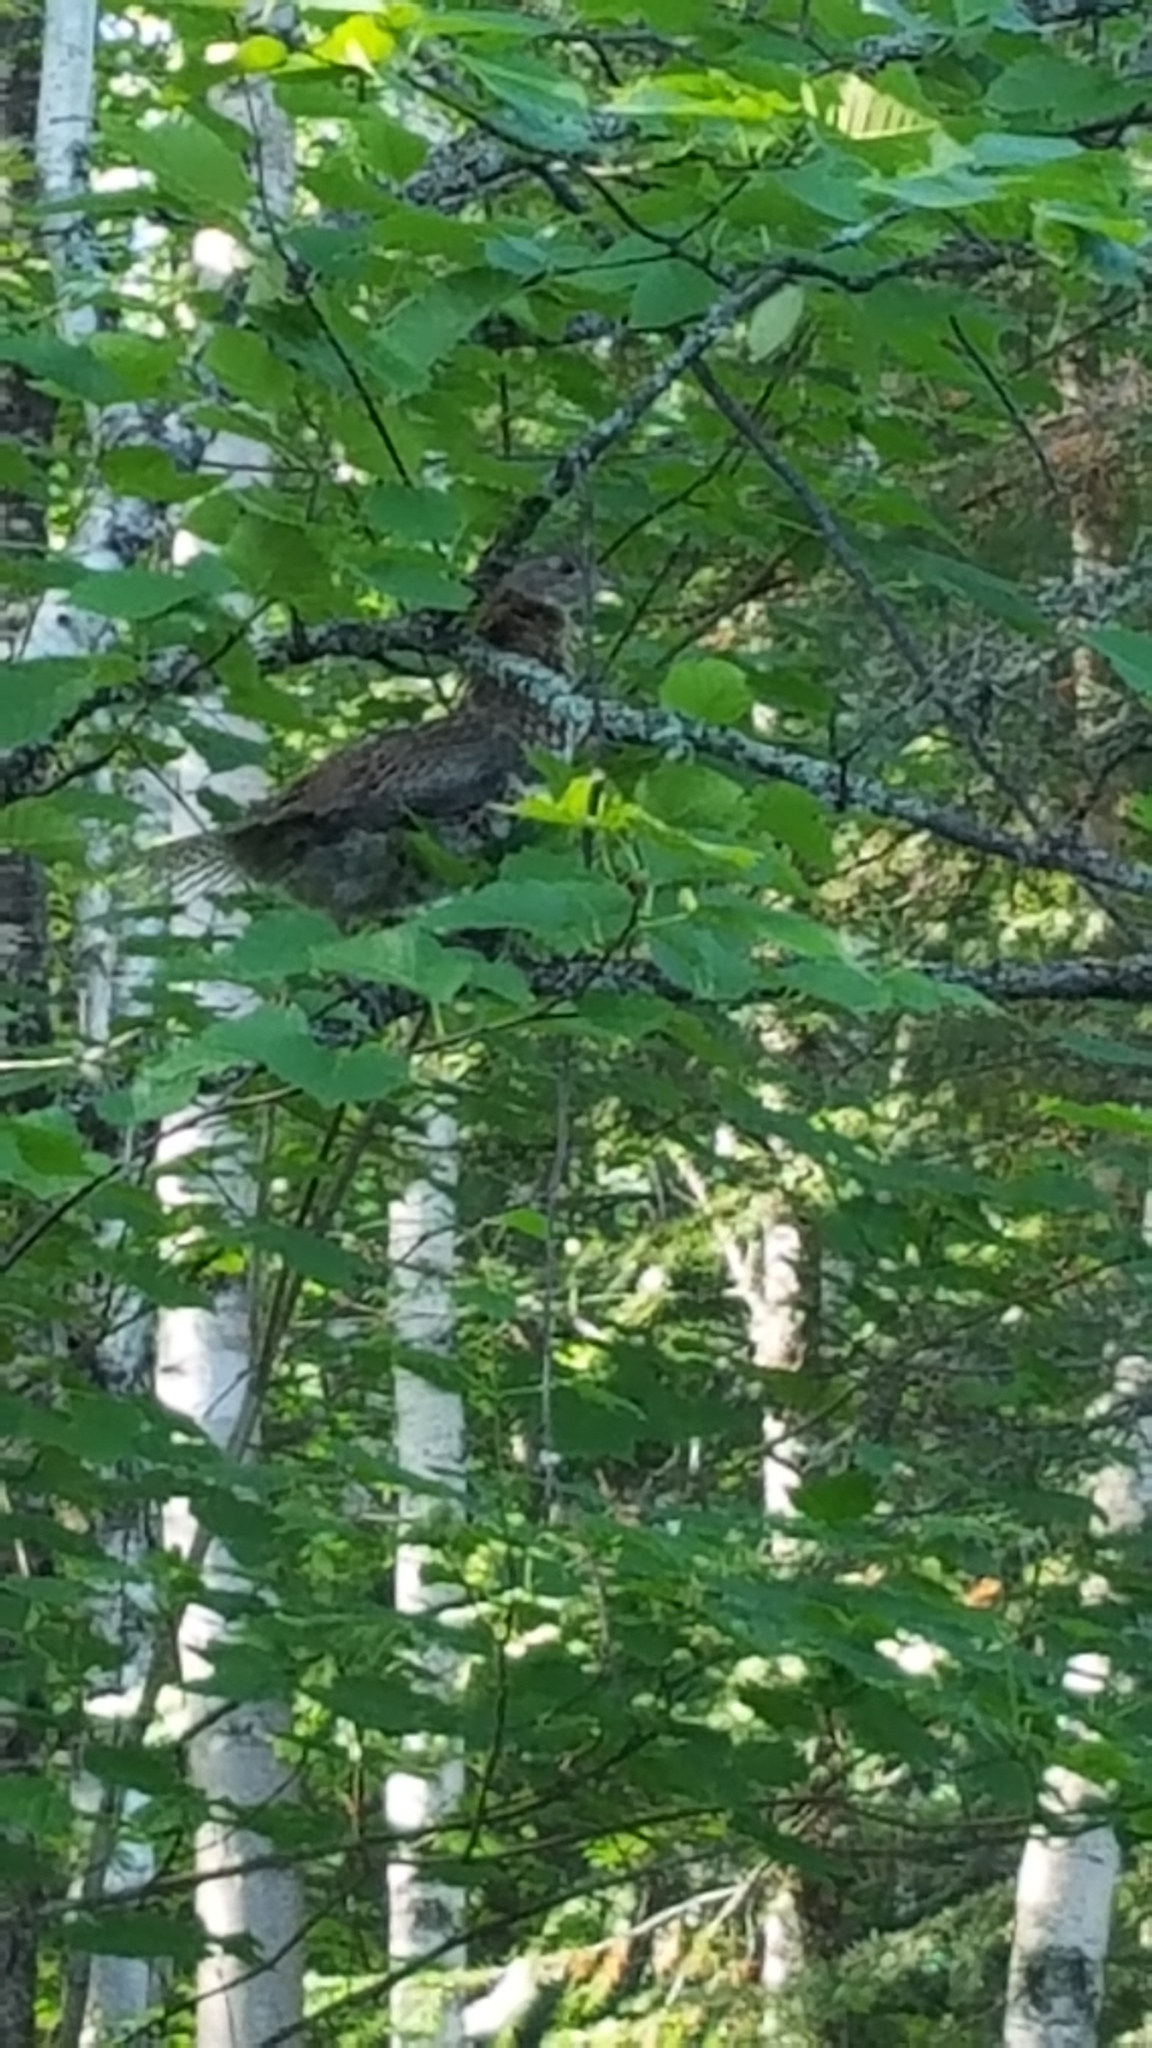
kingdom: Animalia
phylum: Chordata
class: Aves
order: Galliformes
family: Phasianidae
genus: Bonasa
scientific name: Bonasa umbellus
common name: Ruffed grouse
